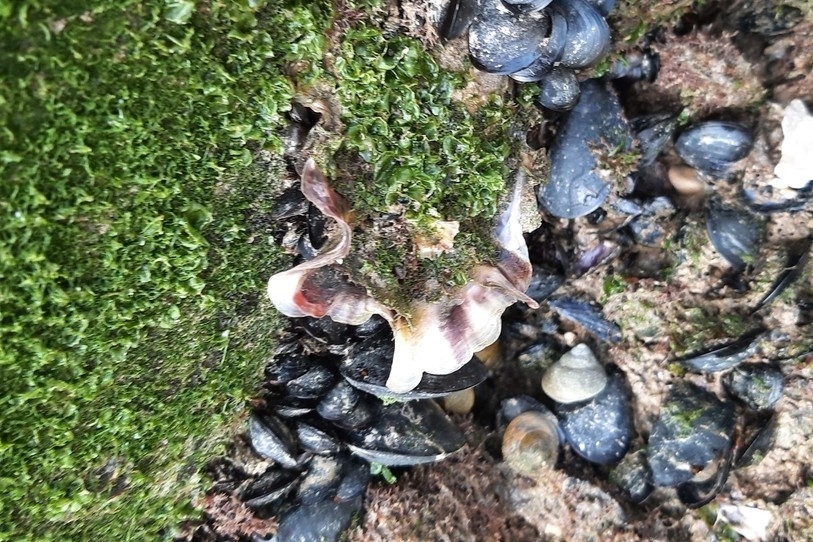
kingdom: Animalia
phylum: Mollusca
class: Bivalvia
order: Ostreida
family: Ostreidae
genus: Magallana
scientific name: Magallana gigas
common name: Pacific oyster
